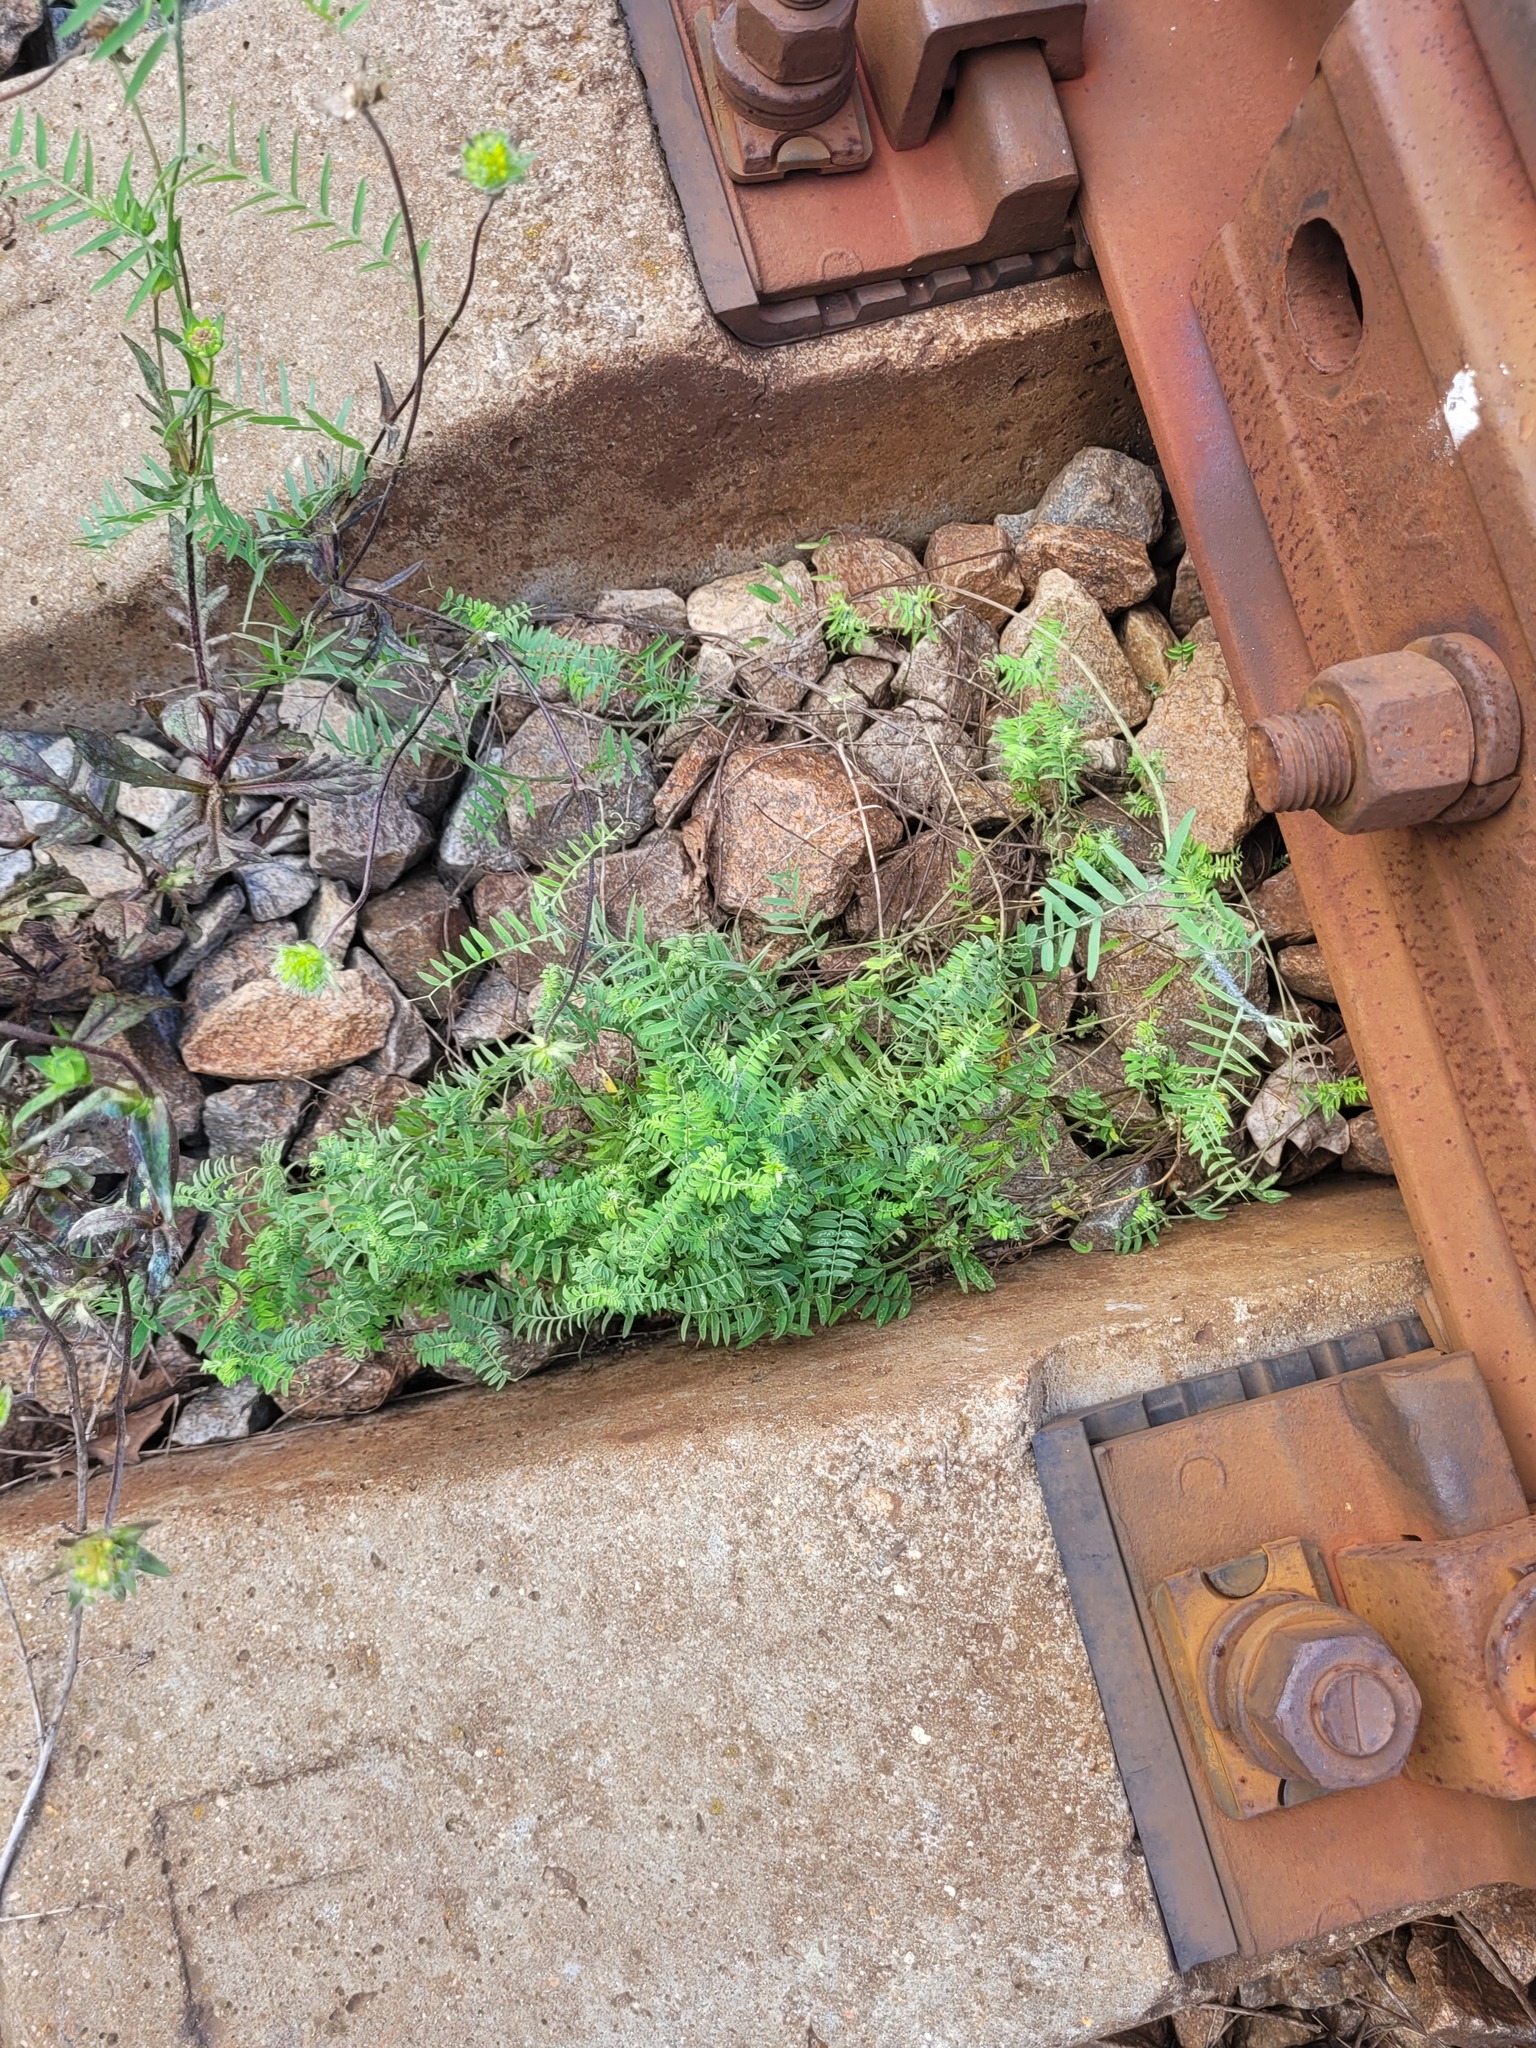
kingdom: Plantae
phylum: Tracheophyta
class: Magnoliopsida
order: Fabales
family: Fabaceae
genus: Vicia
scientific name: Vicia cracca
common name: Bird vetch
